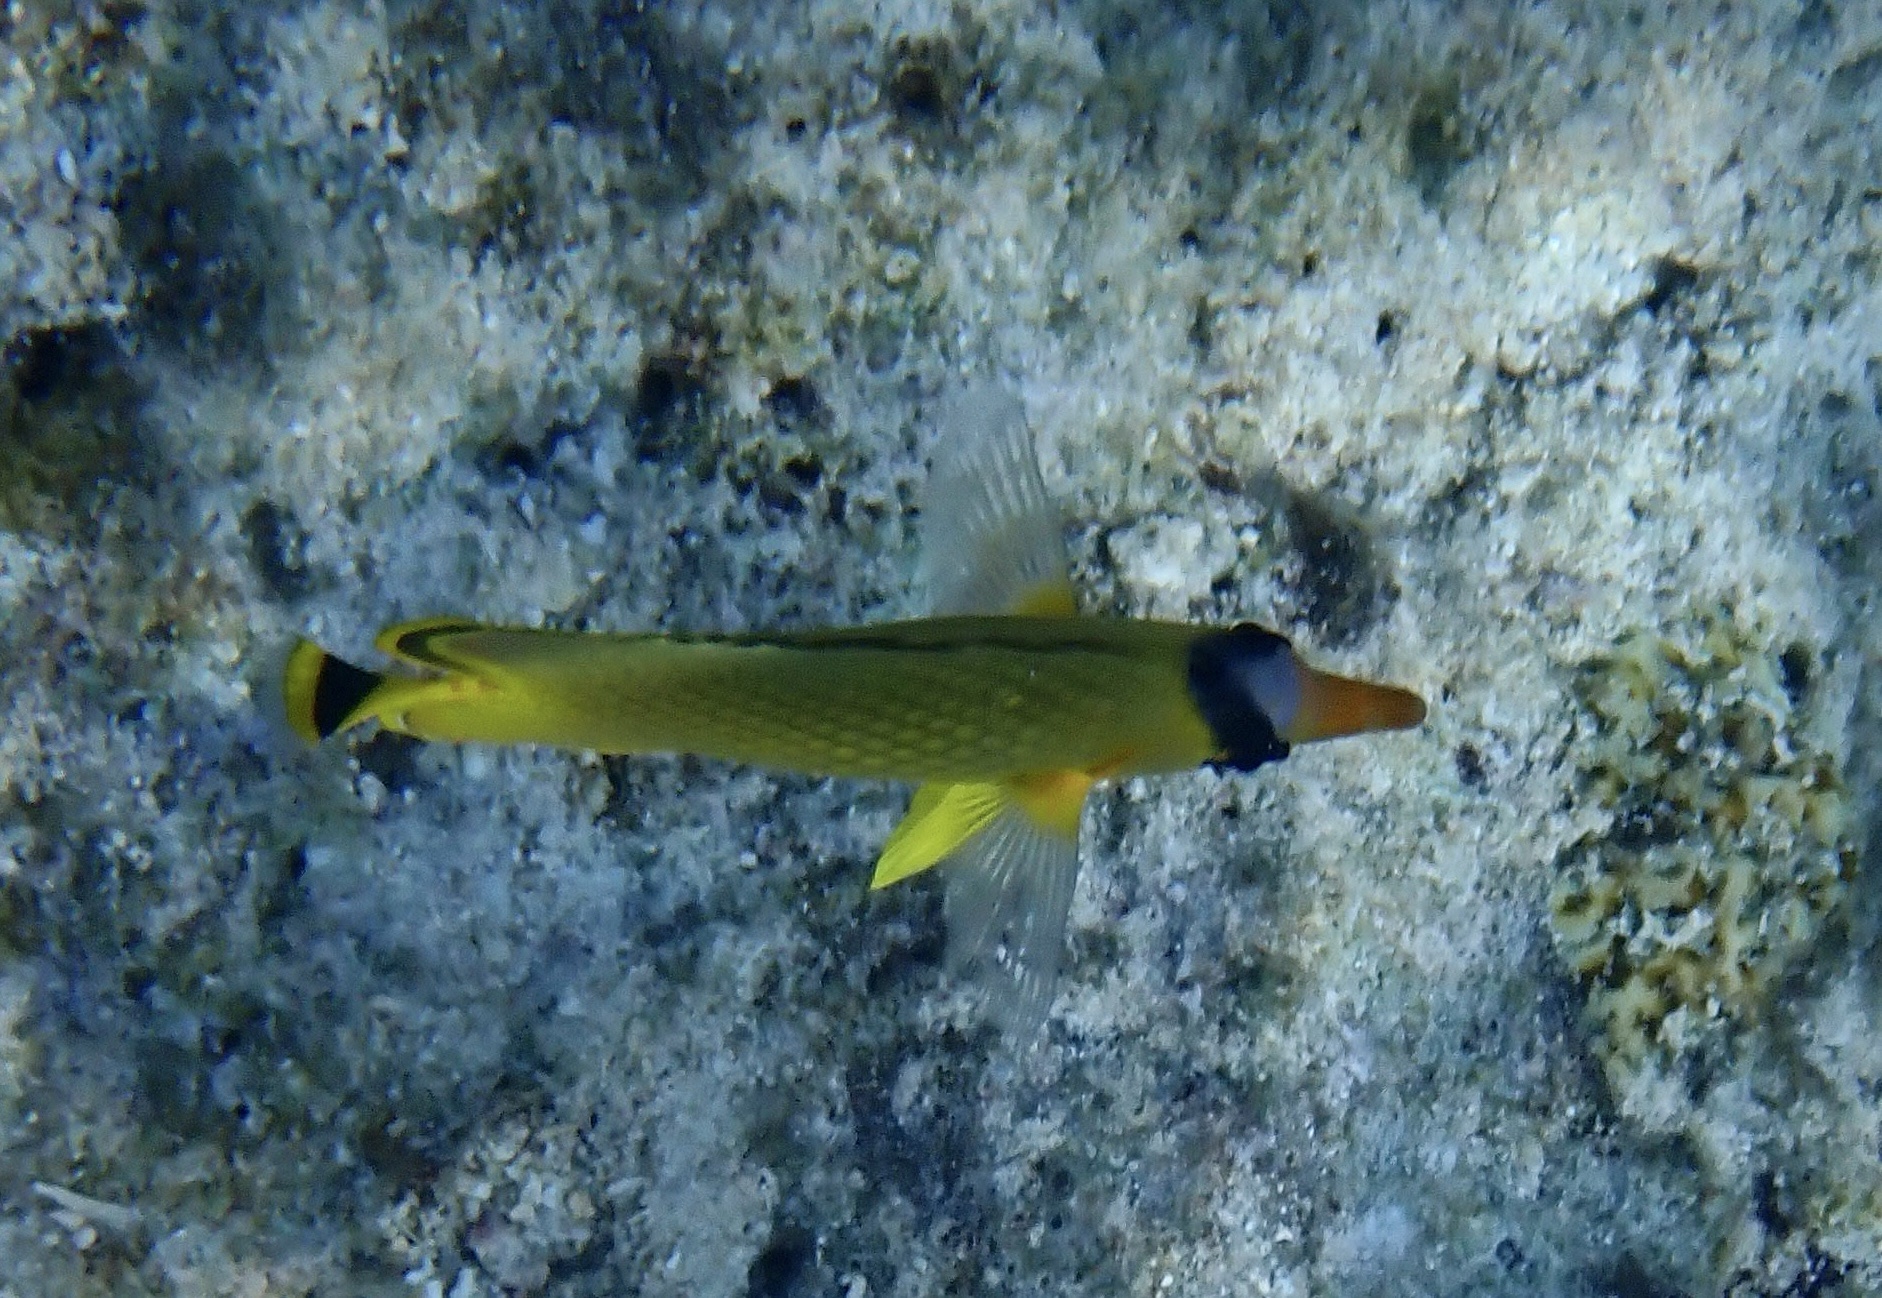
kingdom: Animalia
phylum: Chordata
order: Perciformes
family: Chaetodontidae
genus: Chaetodon
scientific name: Chaetodon rafflesii
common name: Latticed butterflyfish
